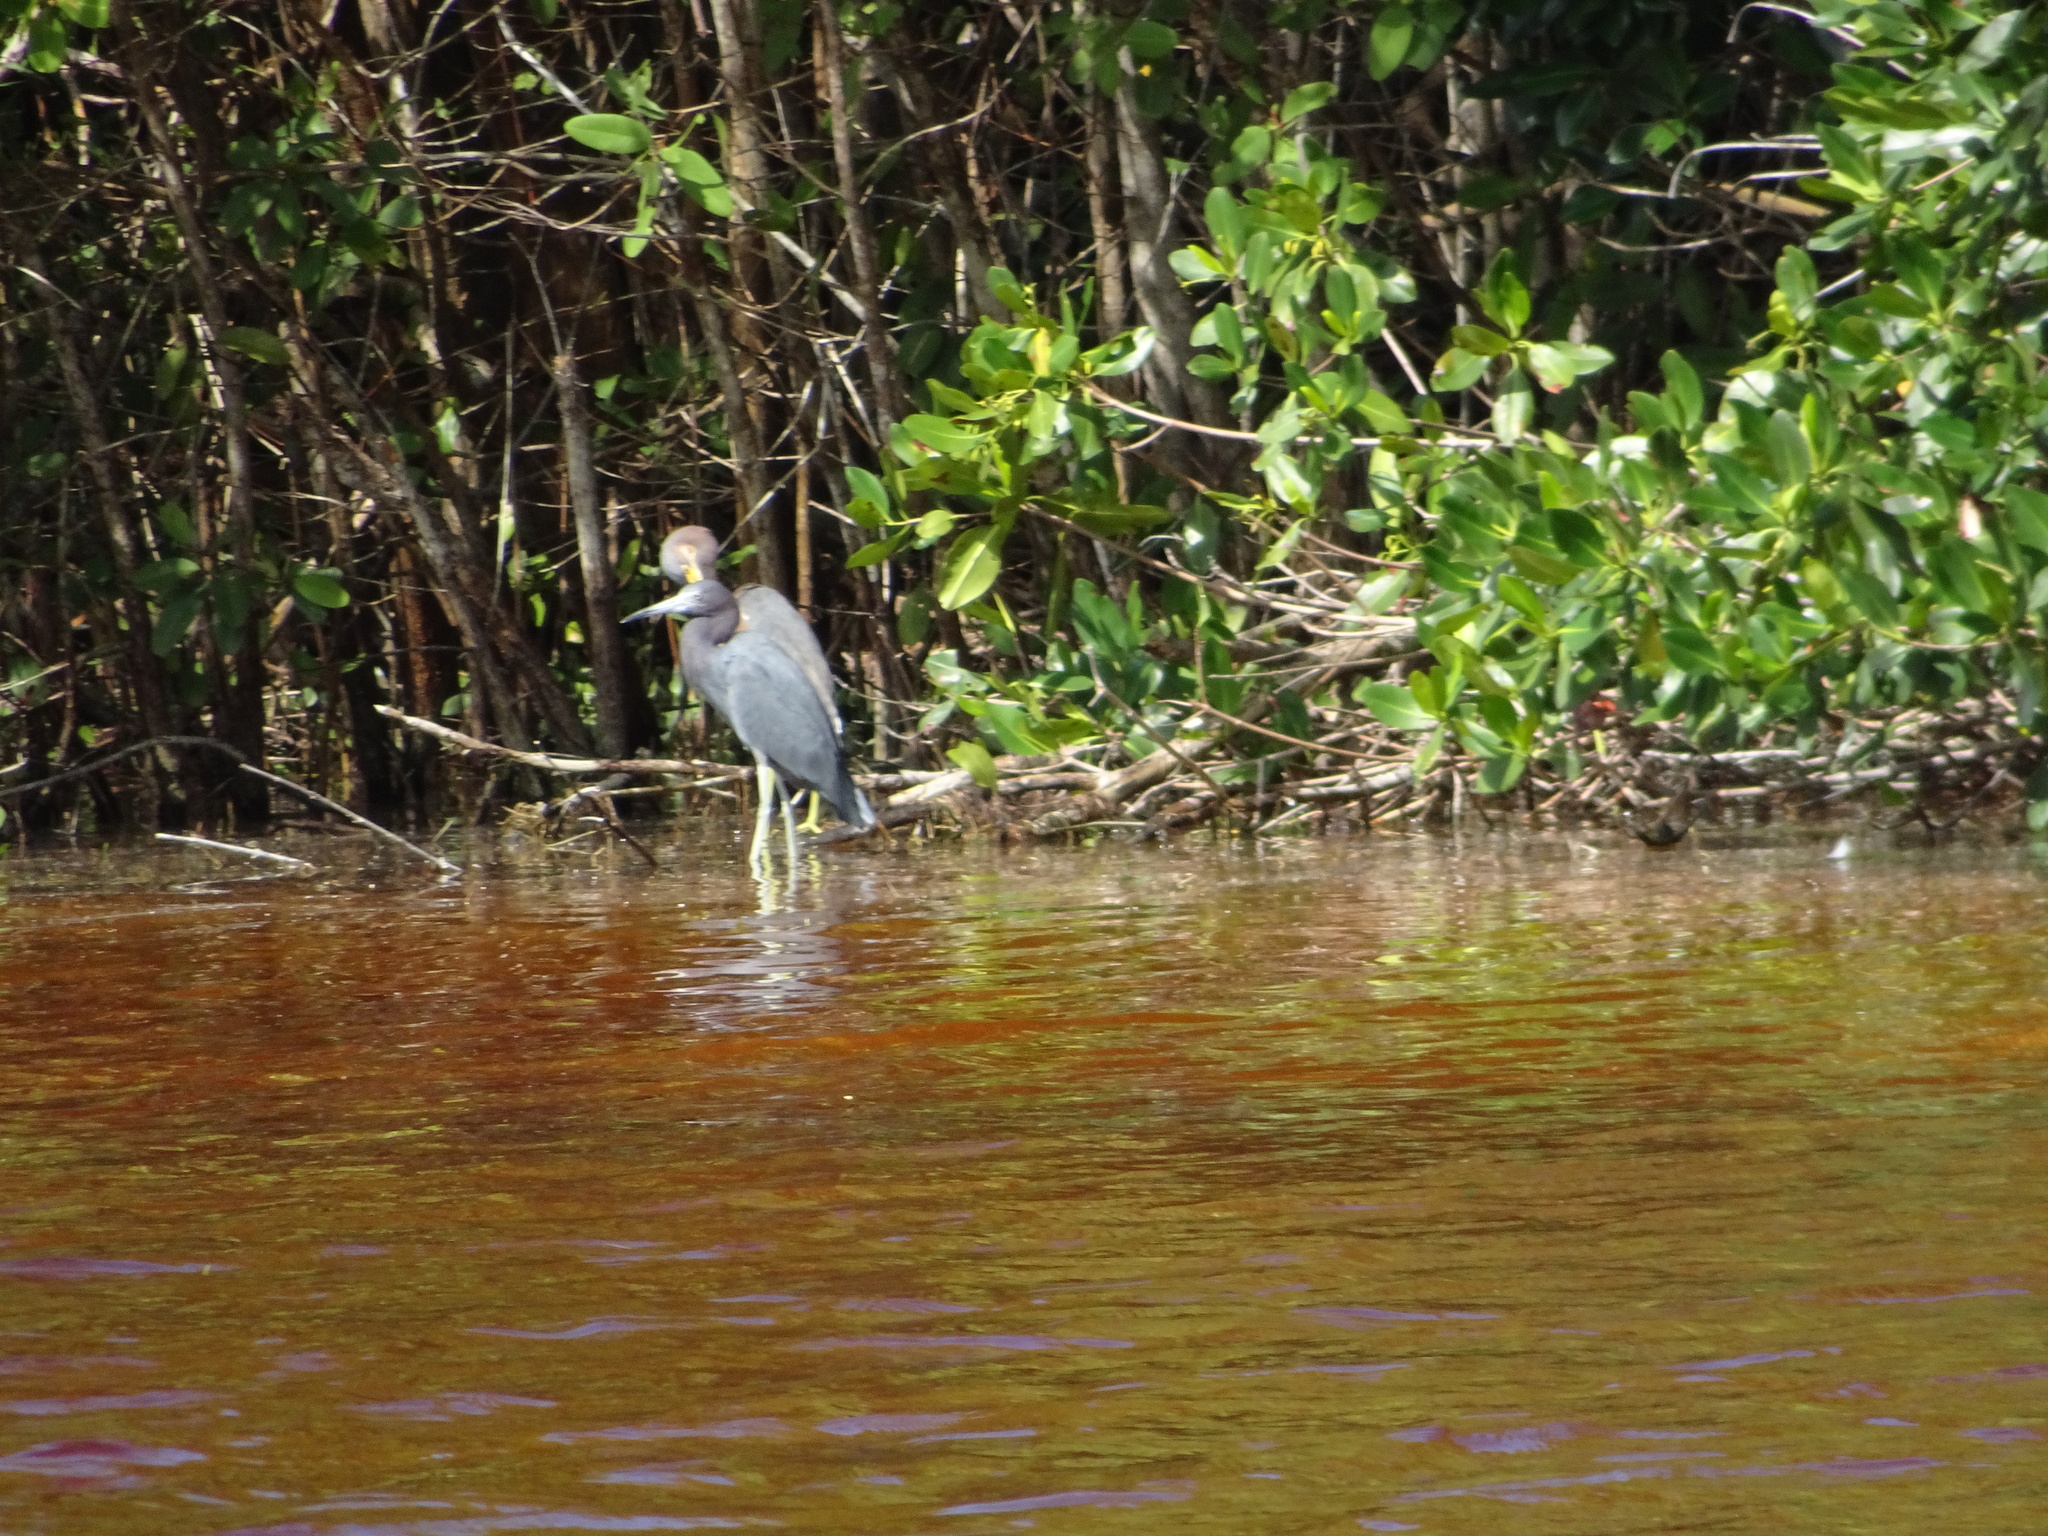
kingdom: Animalia
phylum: Chordata
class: Aves
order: Pelecaniformes
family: Ardeidae
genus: Egretta
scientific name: Egretta caerulea
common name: Little blue heron
